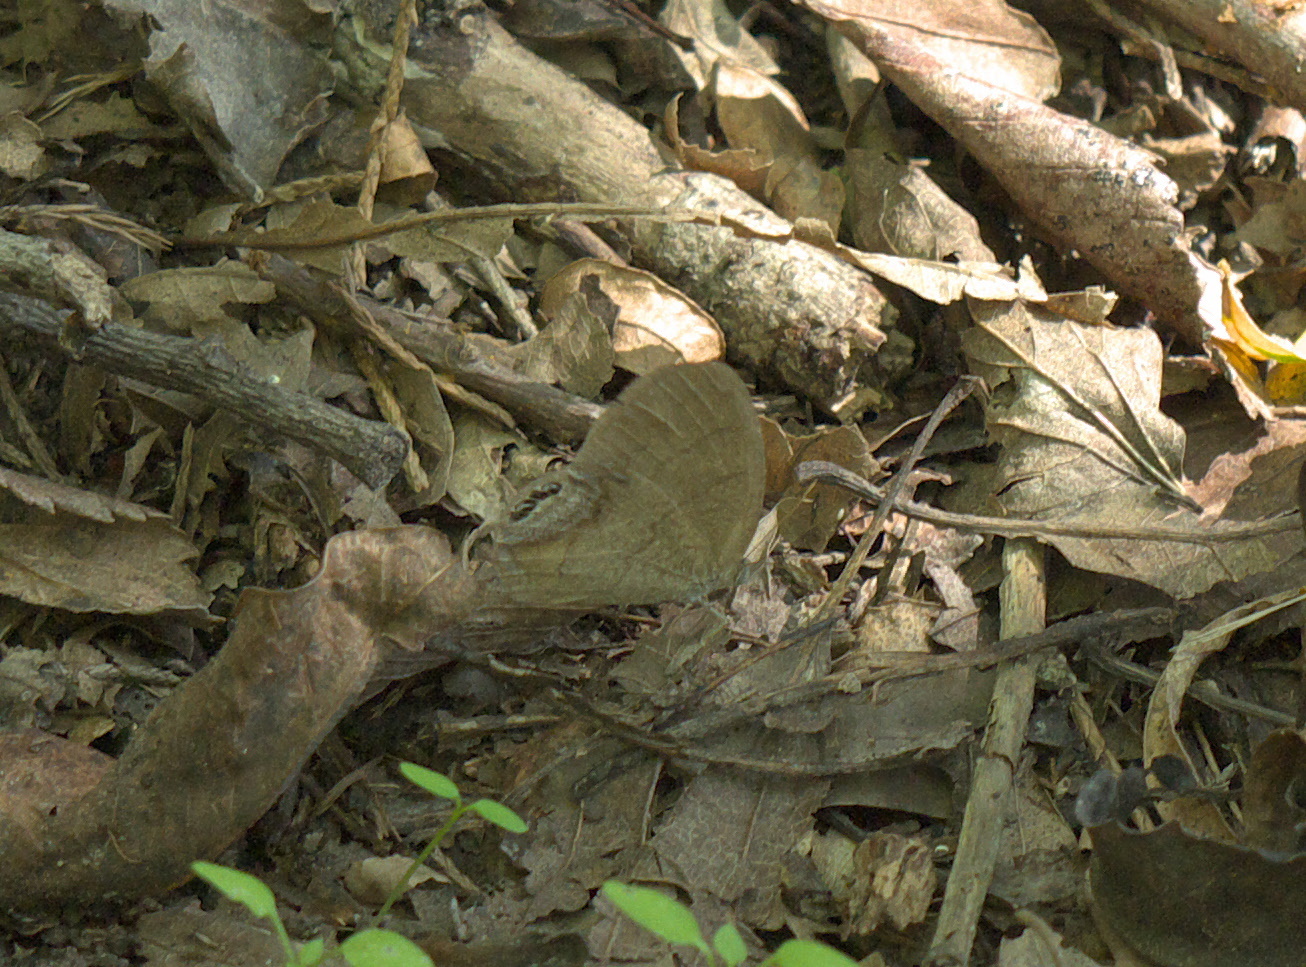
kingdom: Animalia
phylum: Arthropoda
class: Insecta
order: Lepidoptera
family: Nymphalidae
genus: Euptychia
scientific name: Euptychia cornelius
